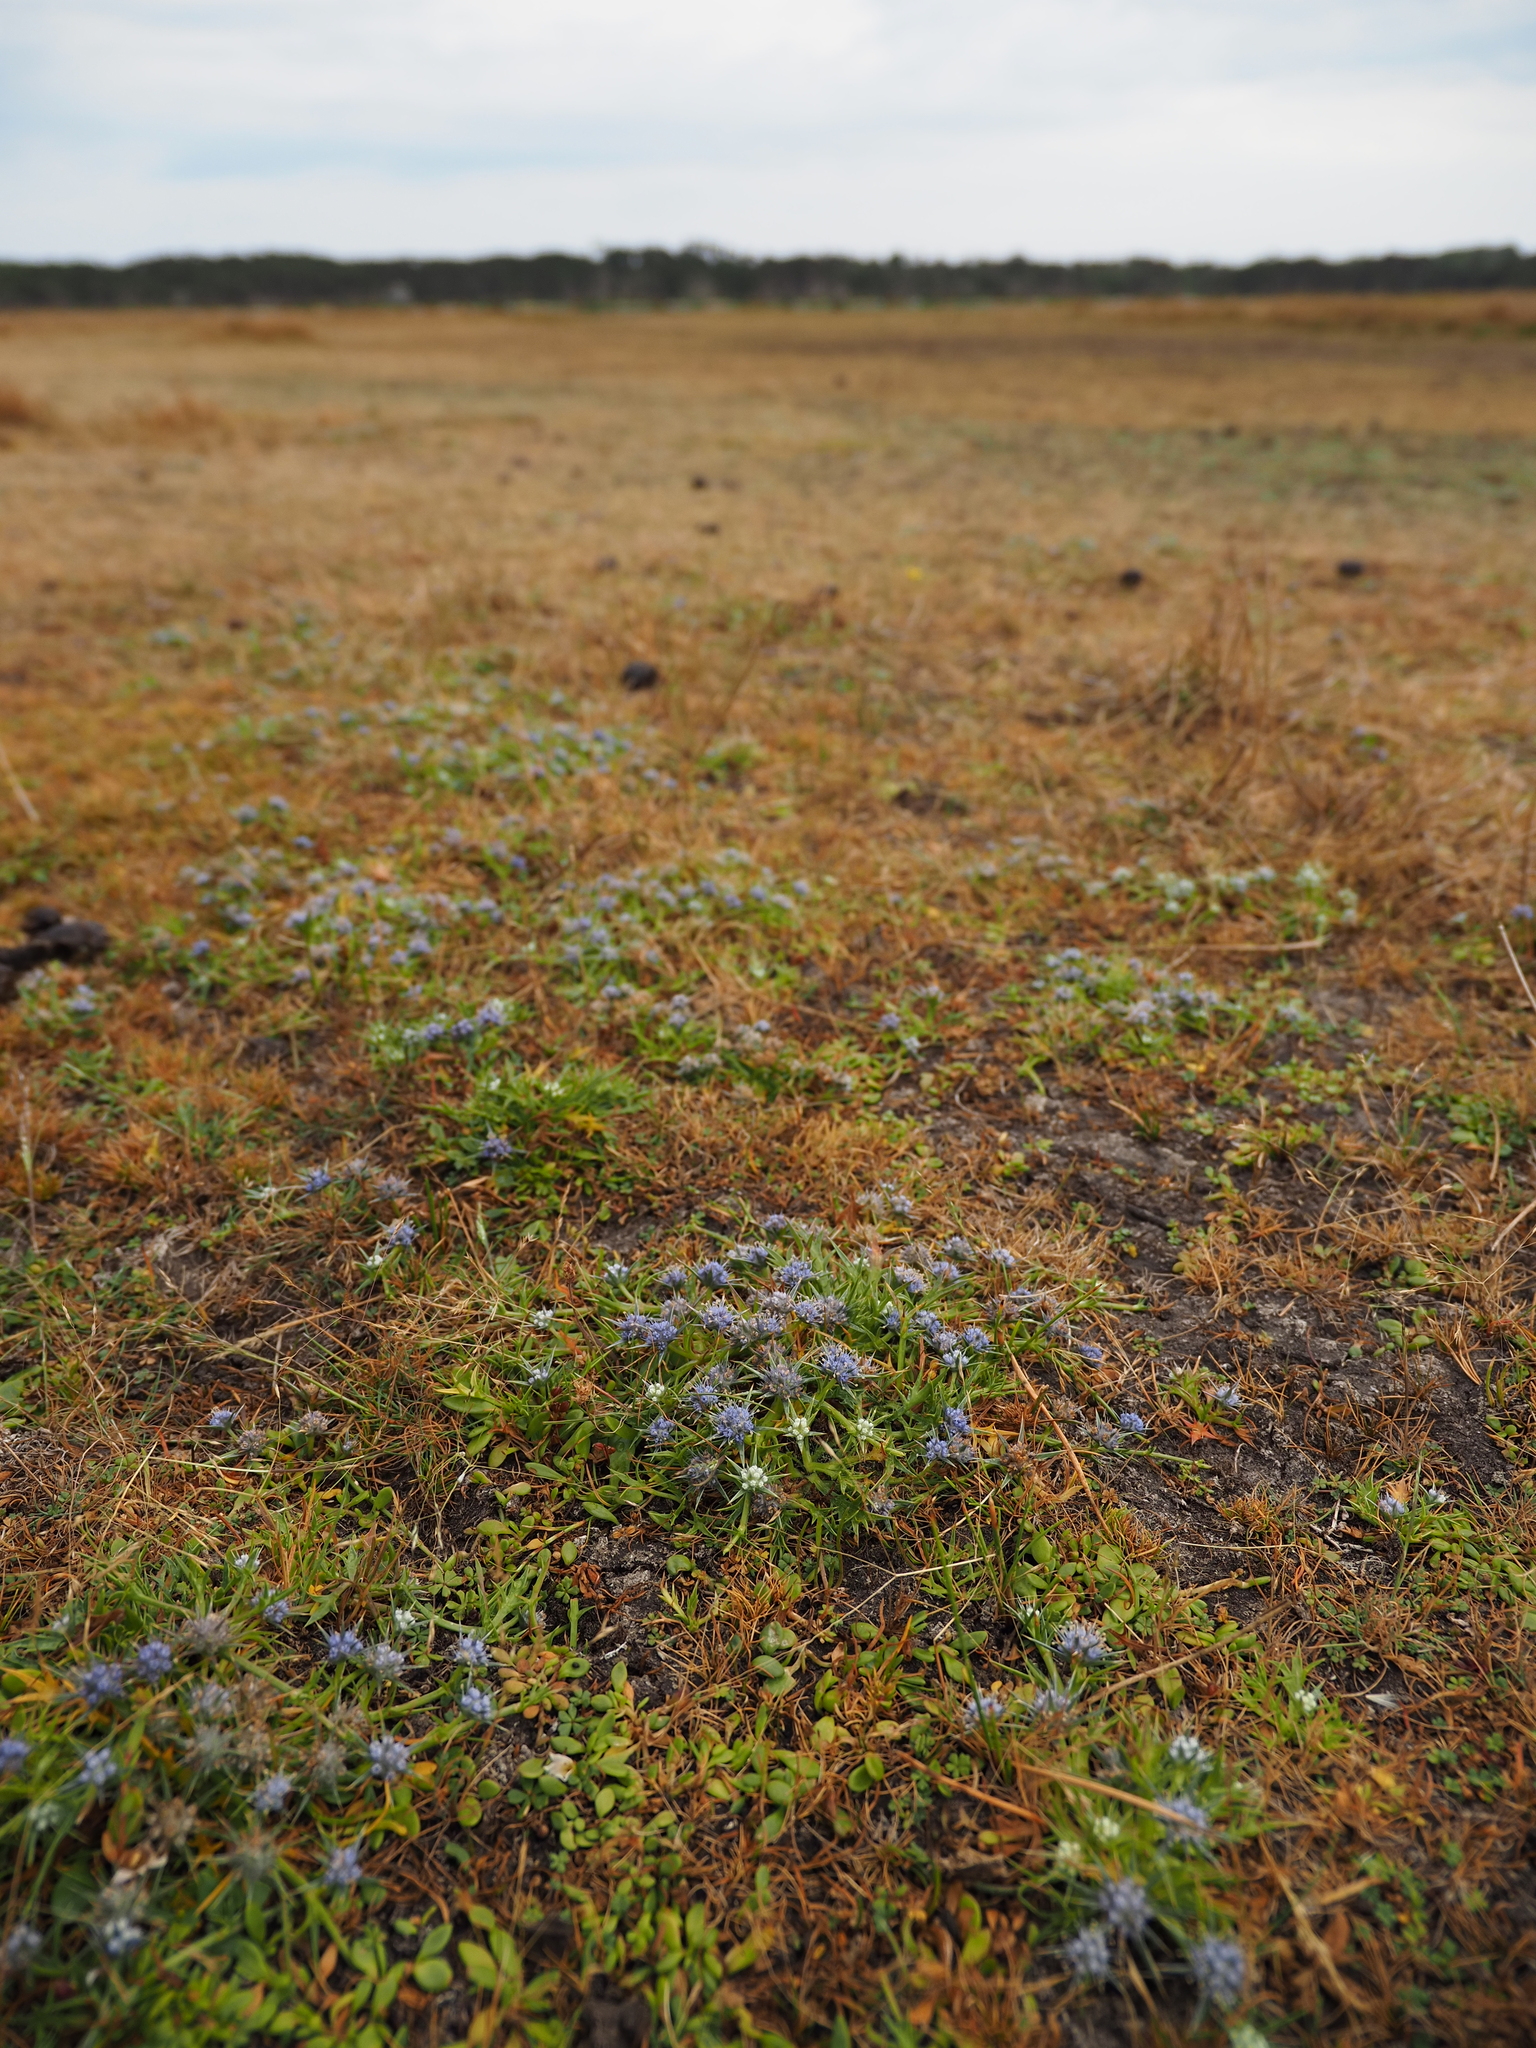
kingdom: Plantae
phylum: Tracheophyta
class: Magnoliopsida
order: Apiales
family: Apiaceae
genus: Eryngium
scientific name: Eryngium vesiculosum
